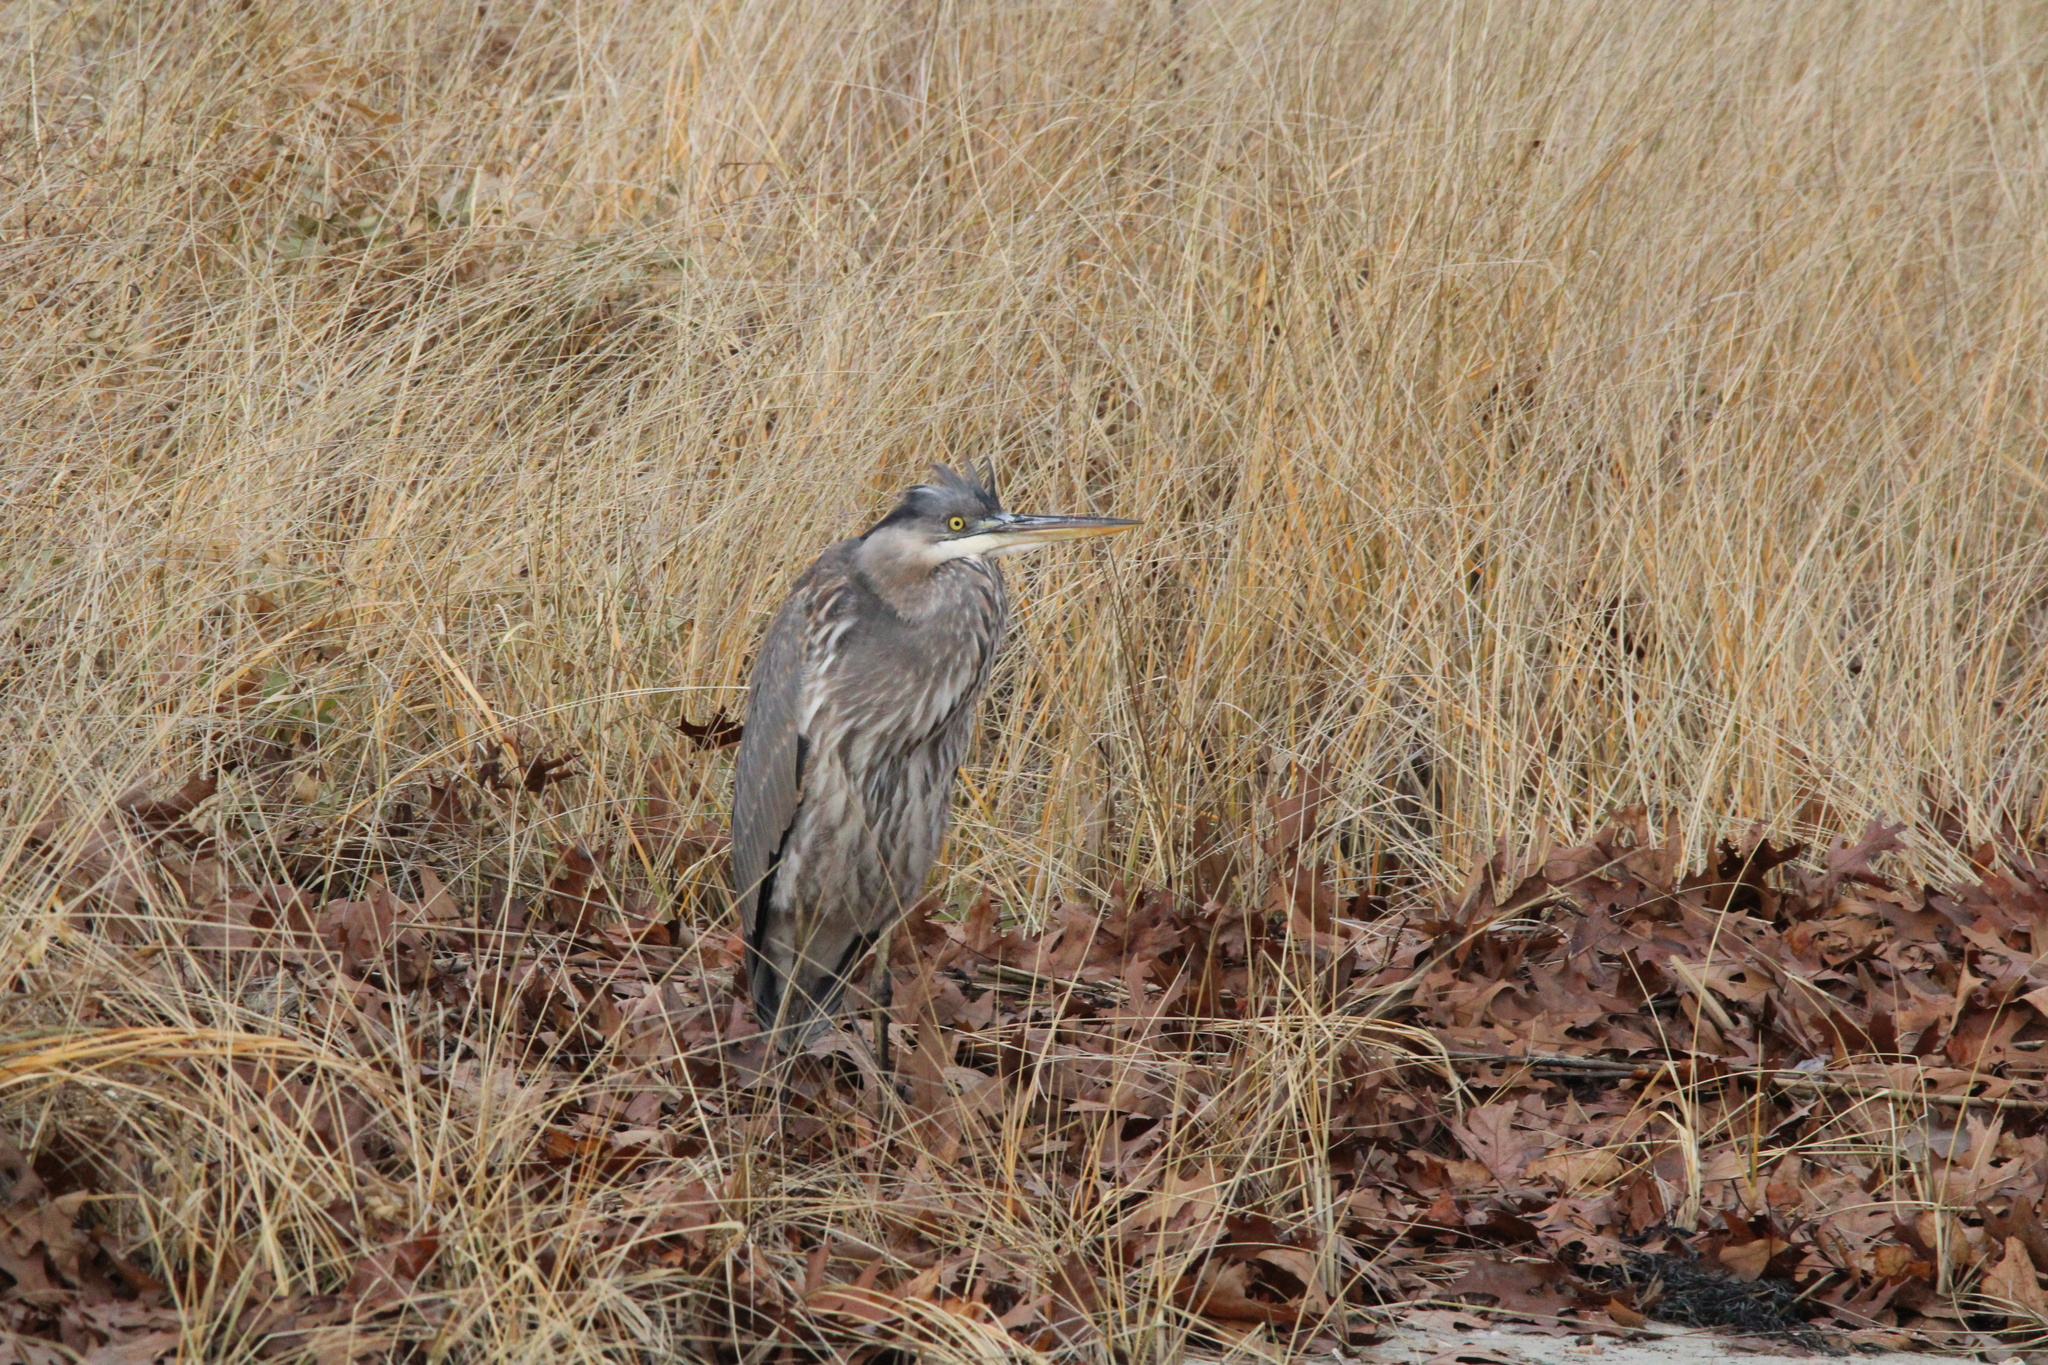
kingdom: Animalia
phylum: Chordata
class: Aves
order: Pelecaniformes
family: Ardeidae
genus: Ardea
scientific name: Ardea herodias
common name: Great blue heron
